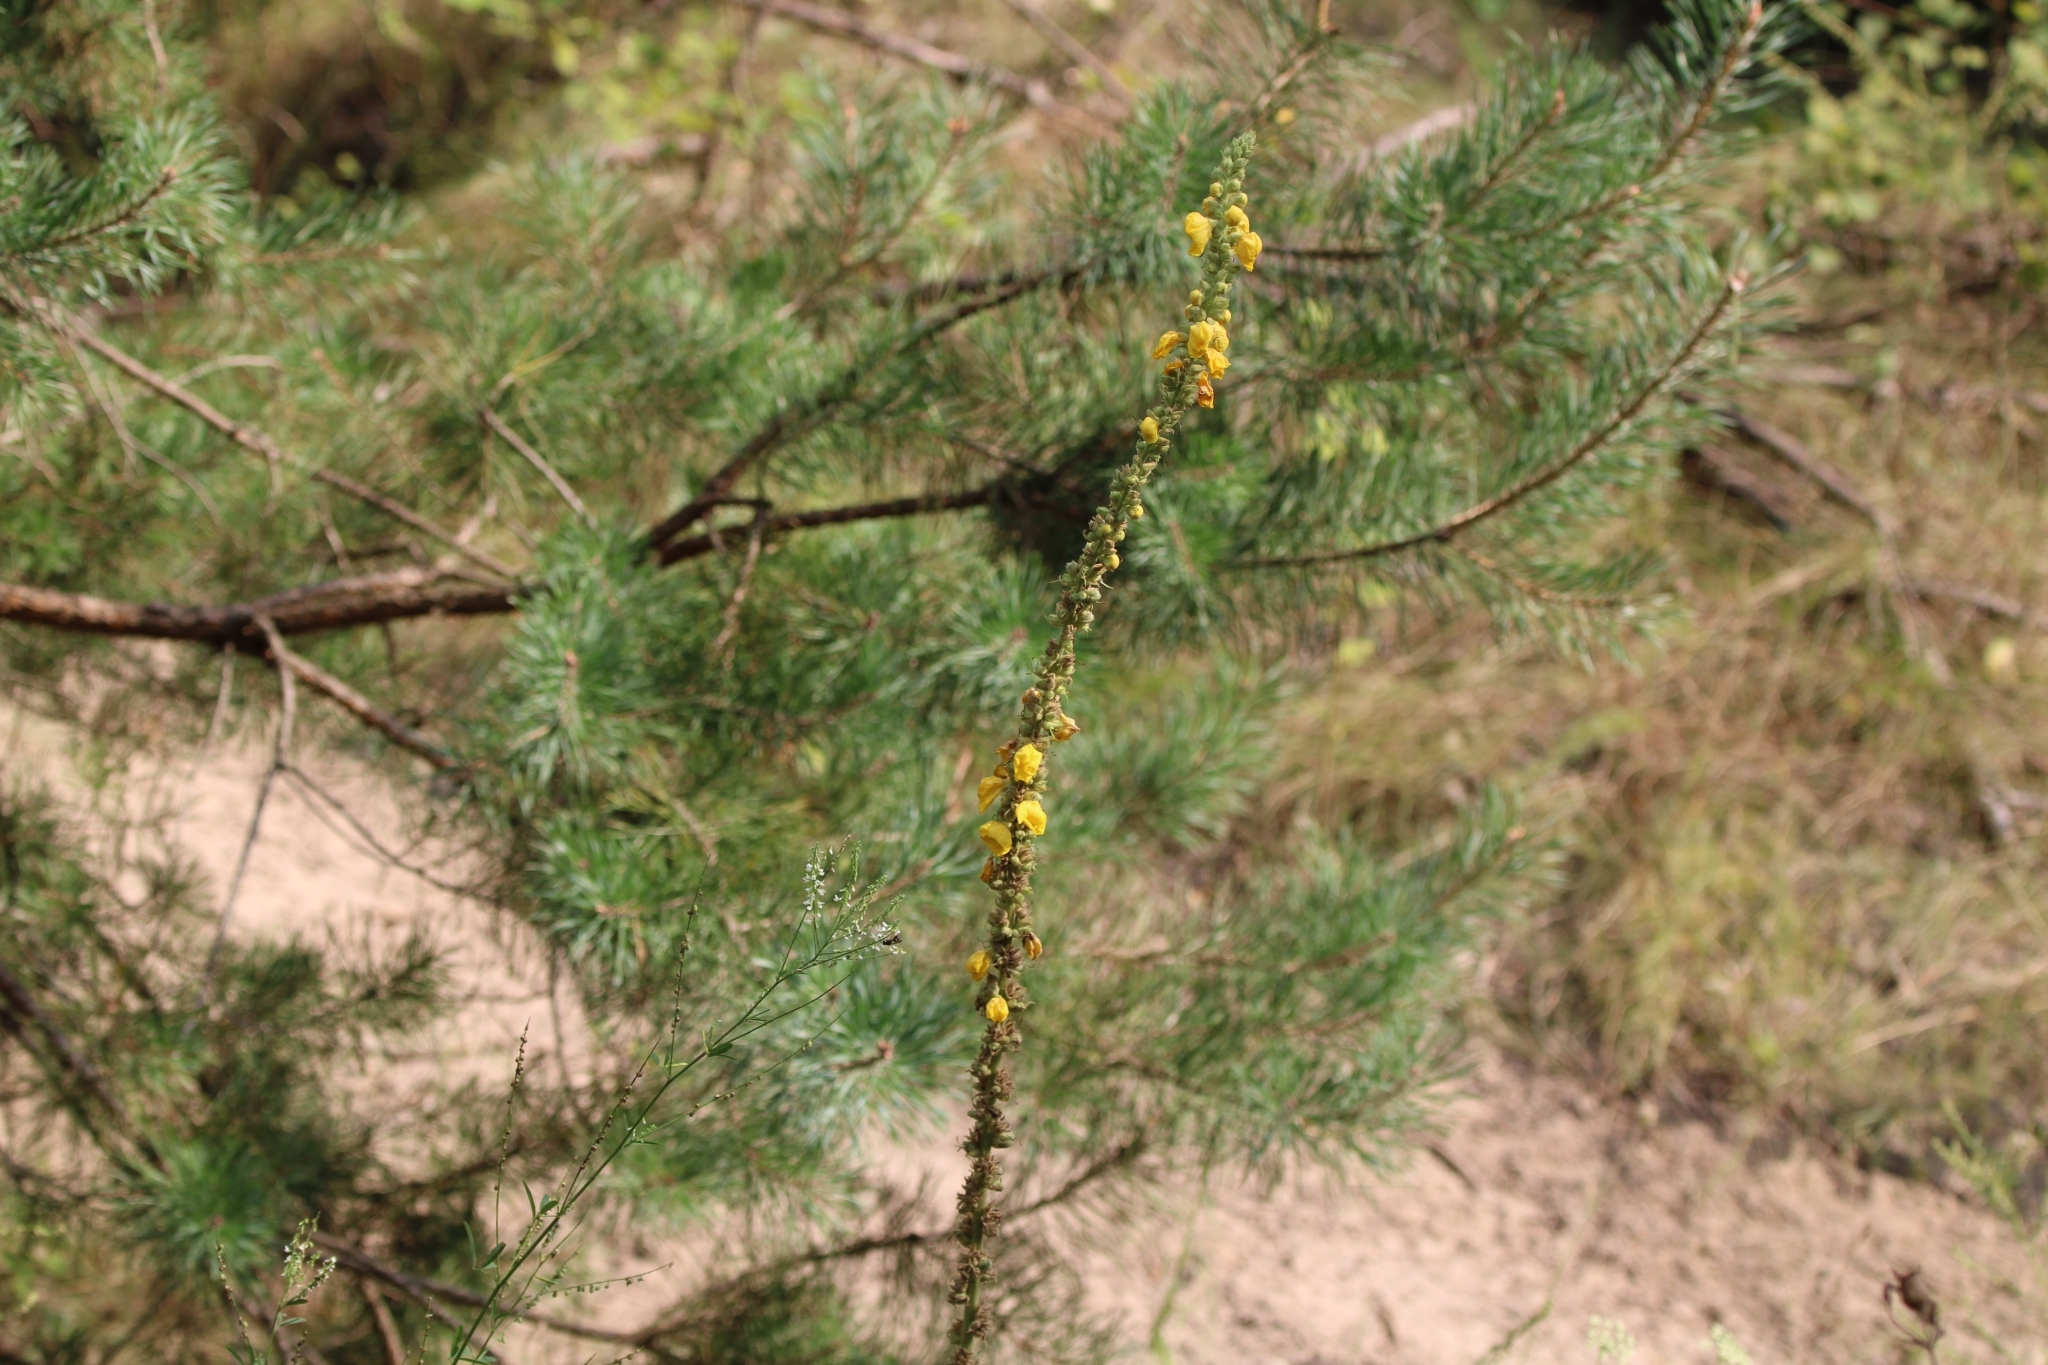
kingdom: Plantae
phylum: Tracheophyta
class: Pinopsida
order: Pinales
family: Pinaceae
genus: Pinus
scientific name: Pinus sylvestris
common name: Scots pine
